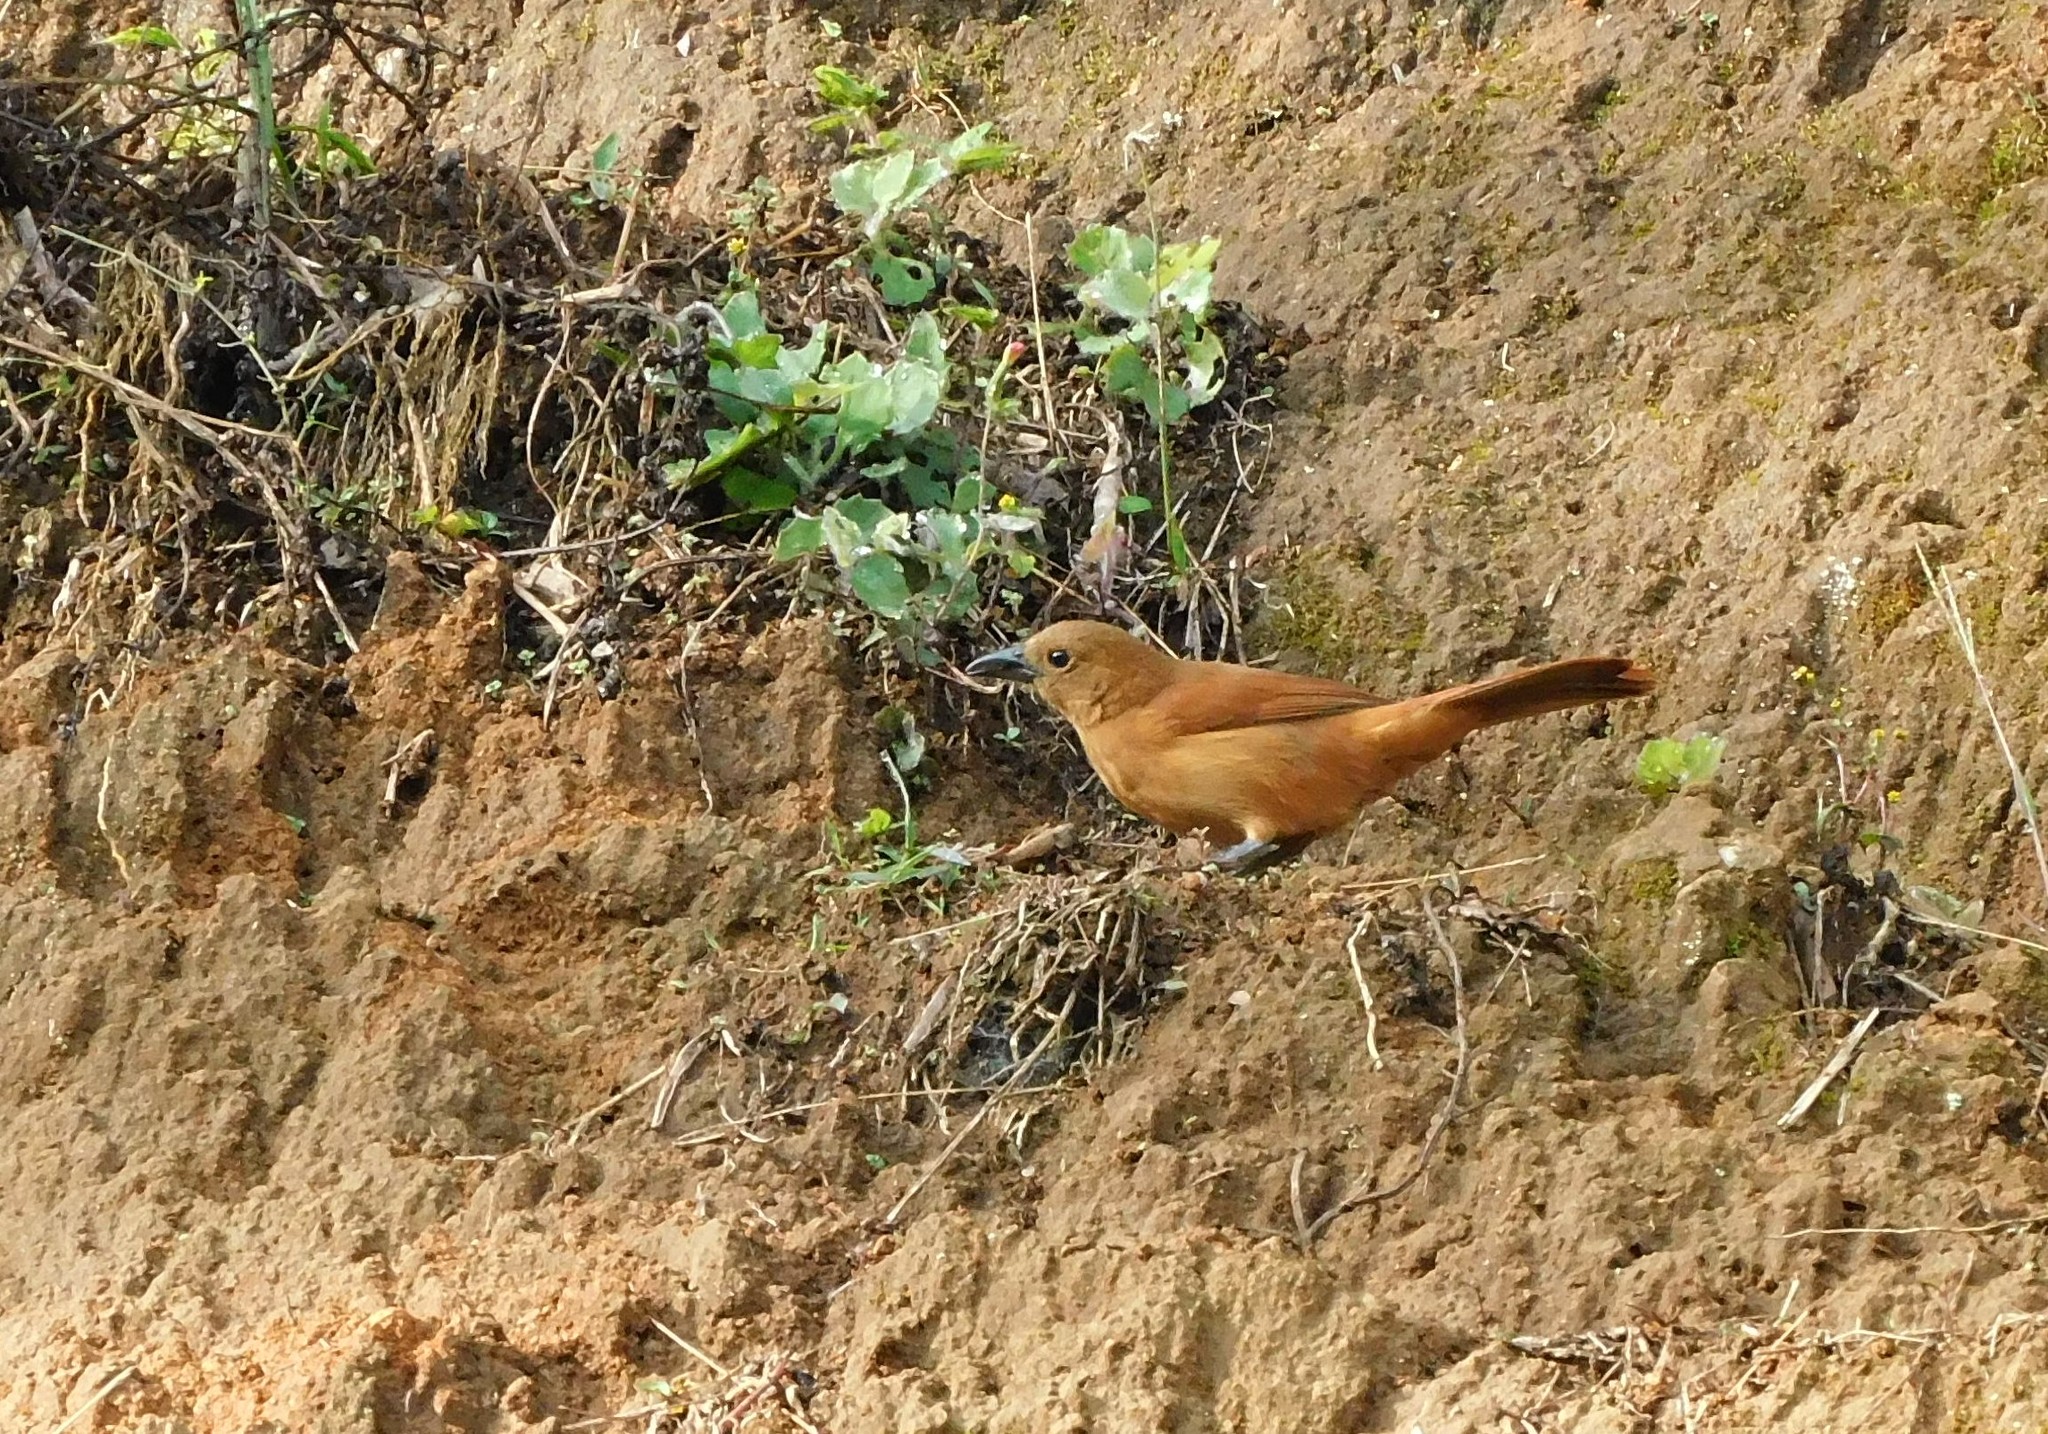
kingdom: Animalia
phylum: Chordata
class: Aves
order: Passeriformes
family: Thraupidae
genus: Tachyphonus
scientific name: Tachyphonus rufus
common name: White-lined tanager
